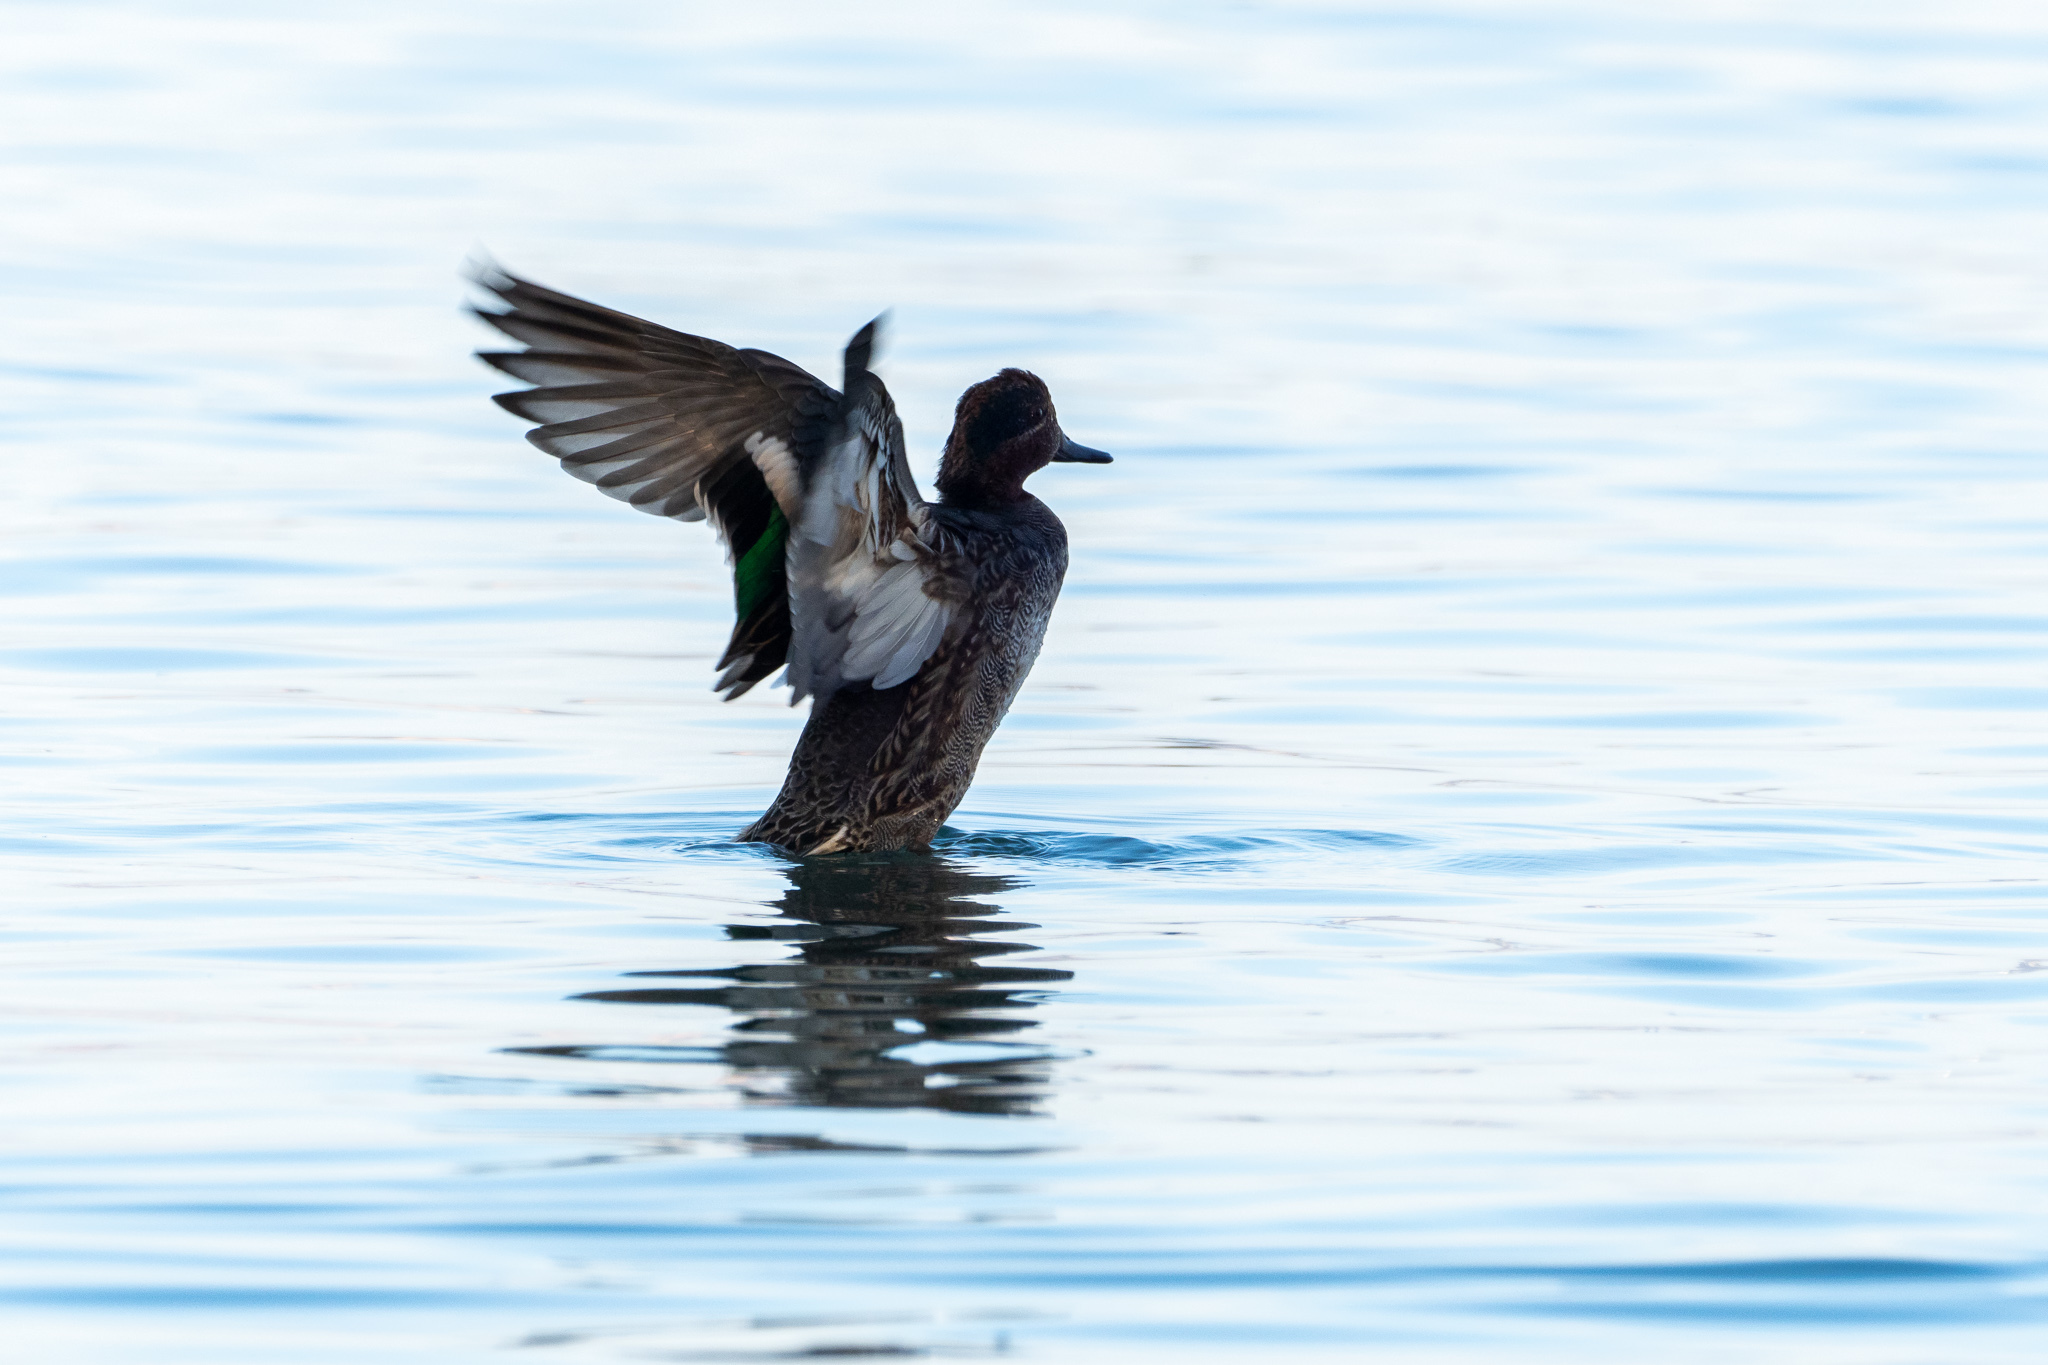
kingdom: Animalia
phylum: Chordata
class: Aves
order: Anseriformes
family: Anatidae
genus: Anas
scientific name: Anas crecca
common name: Eurasian teal
